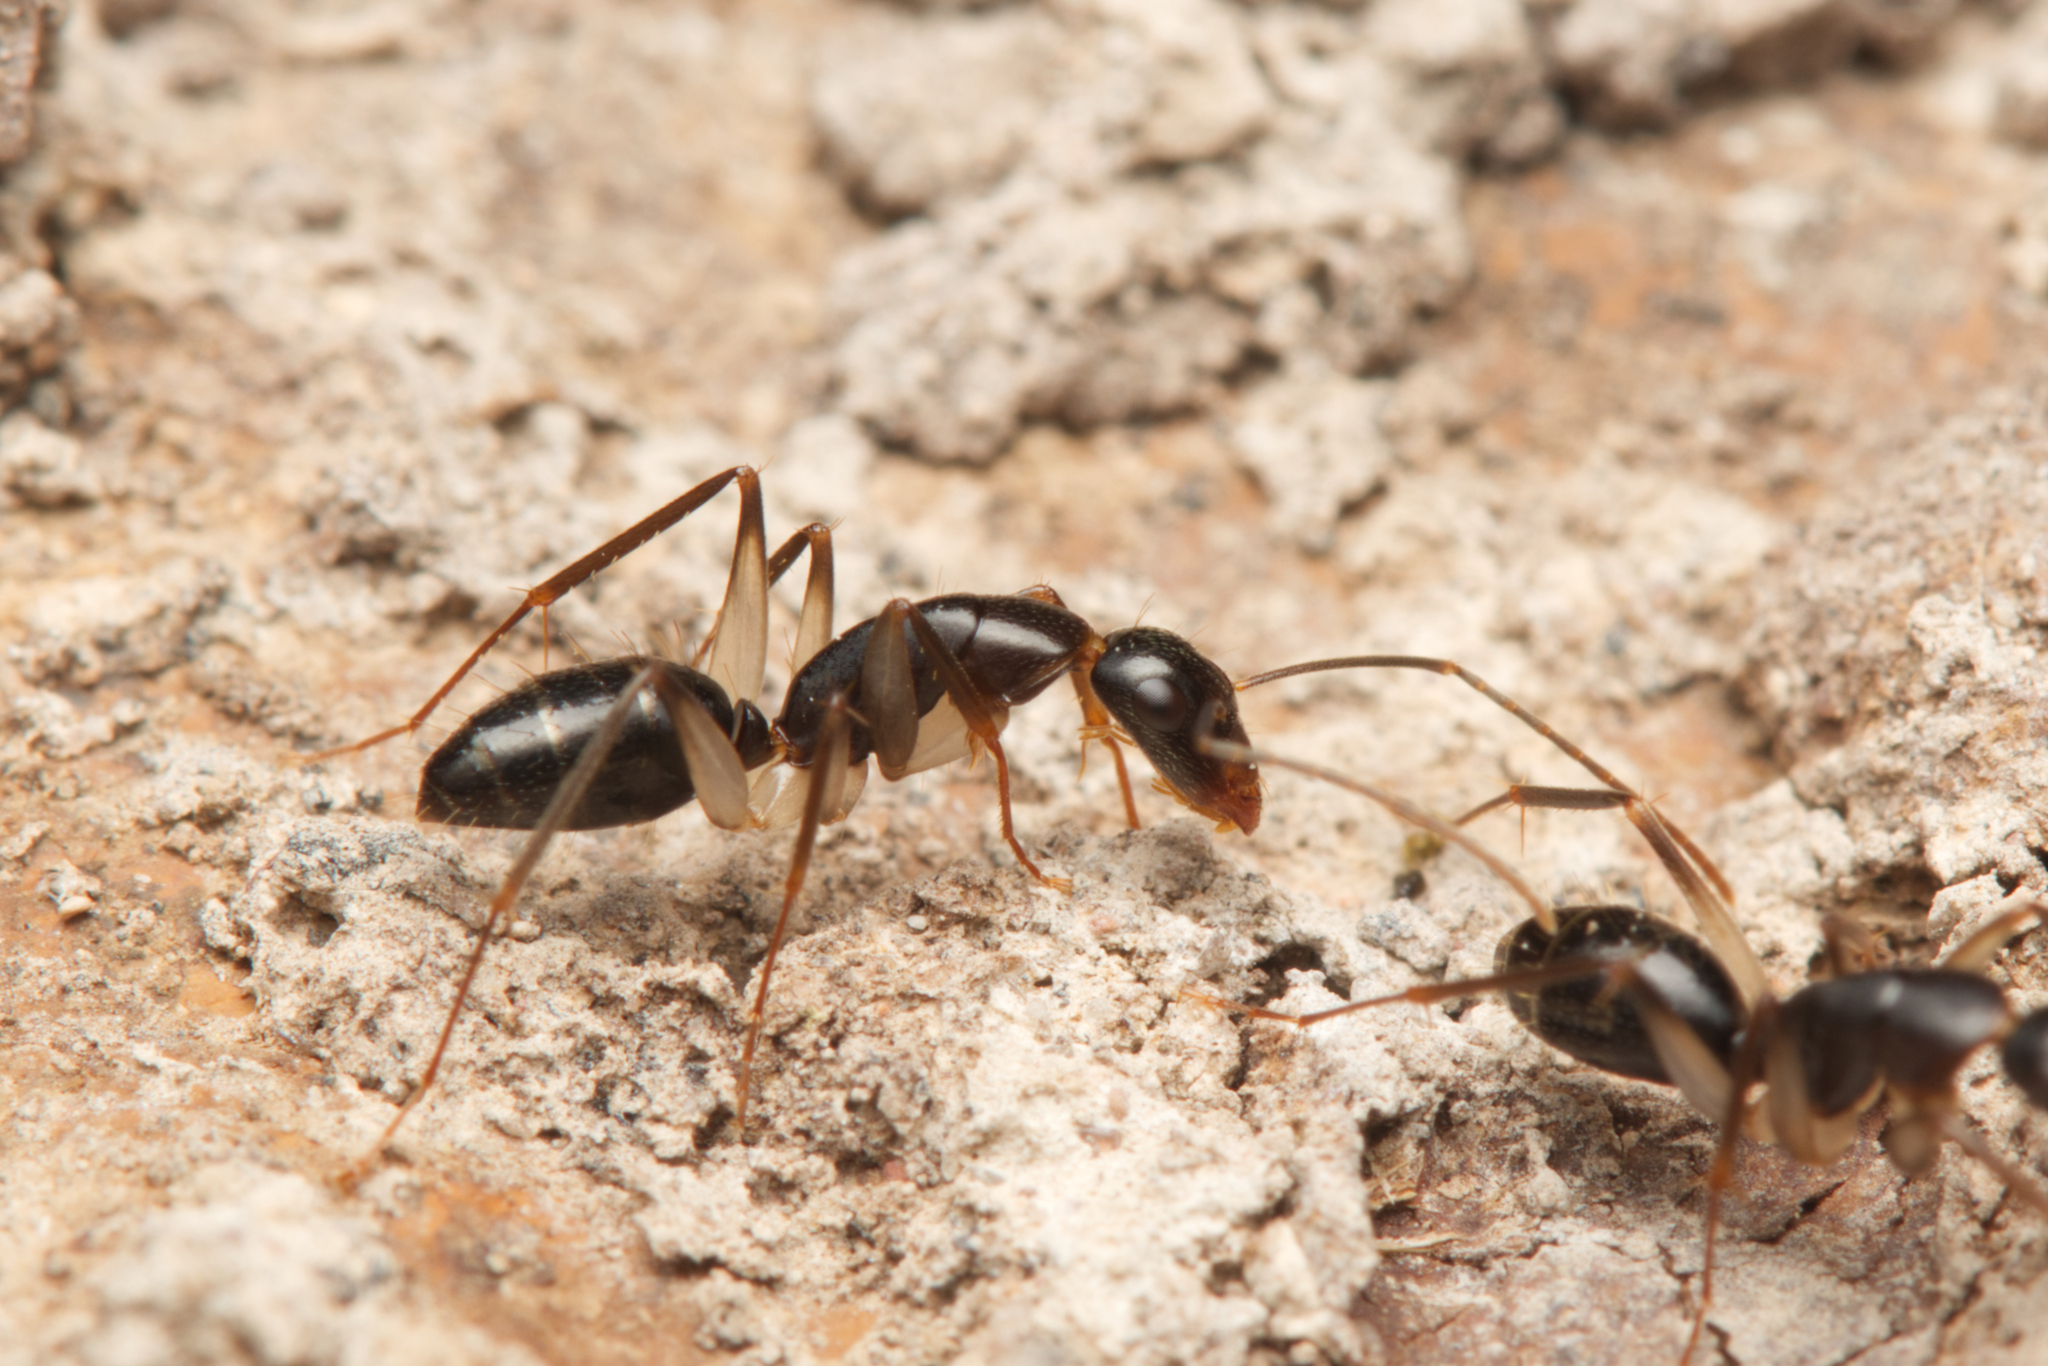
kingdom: Animalia
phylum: Arthropoda
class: Insecta
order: Hymenoptera
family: Formicidae
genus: Camponotus
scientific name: Camponotus claripes
